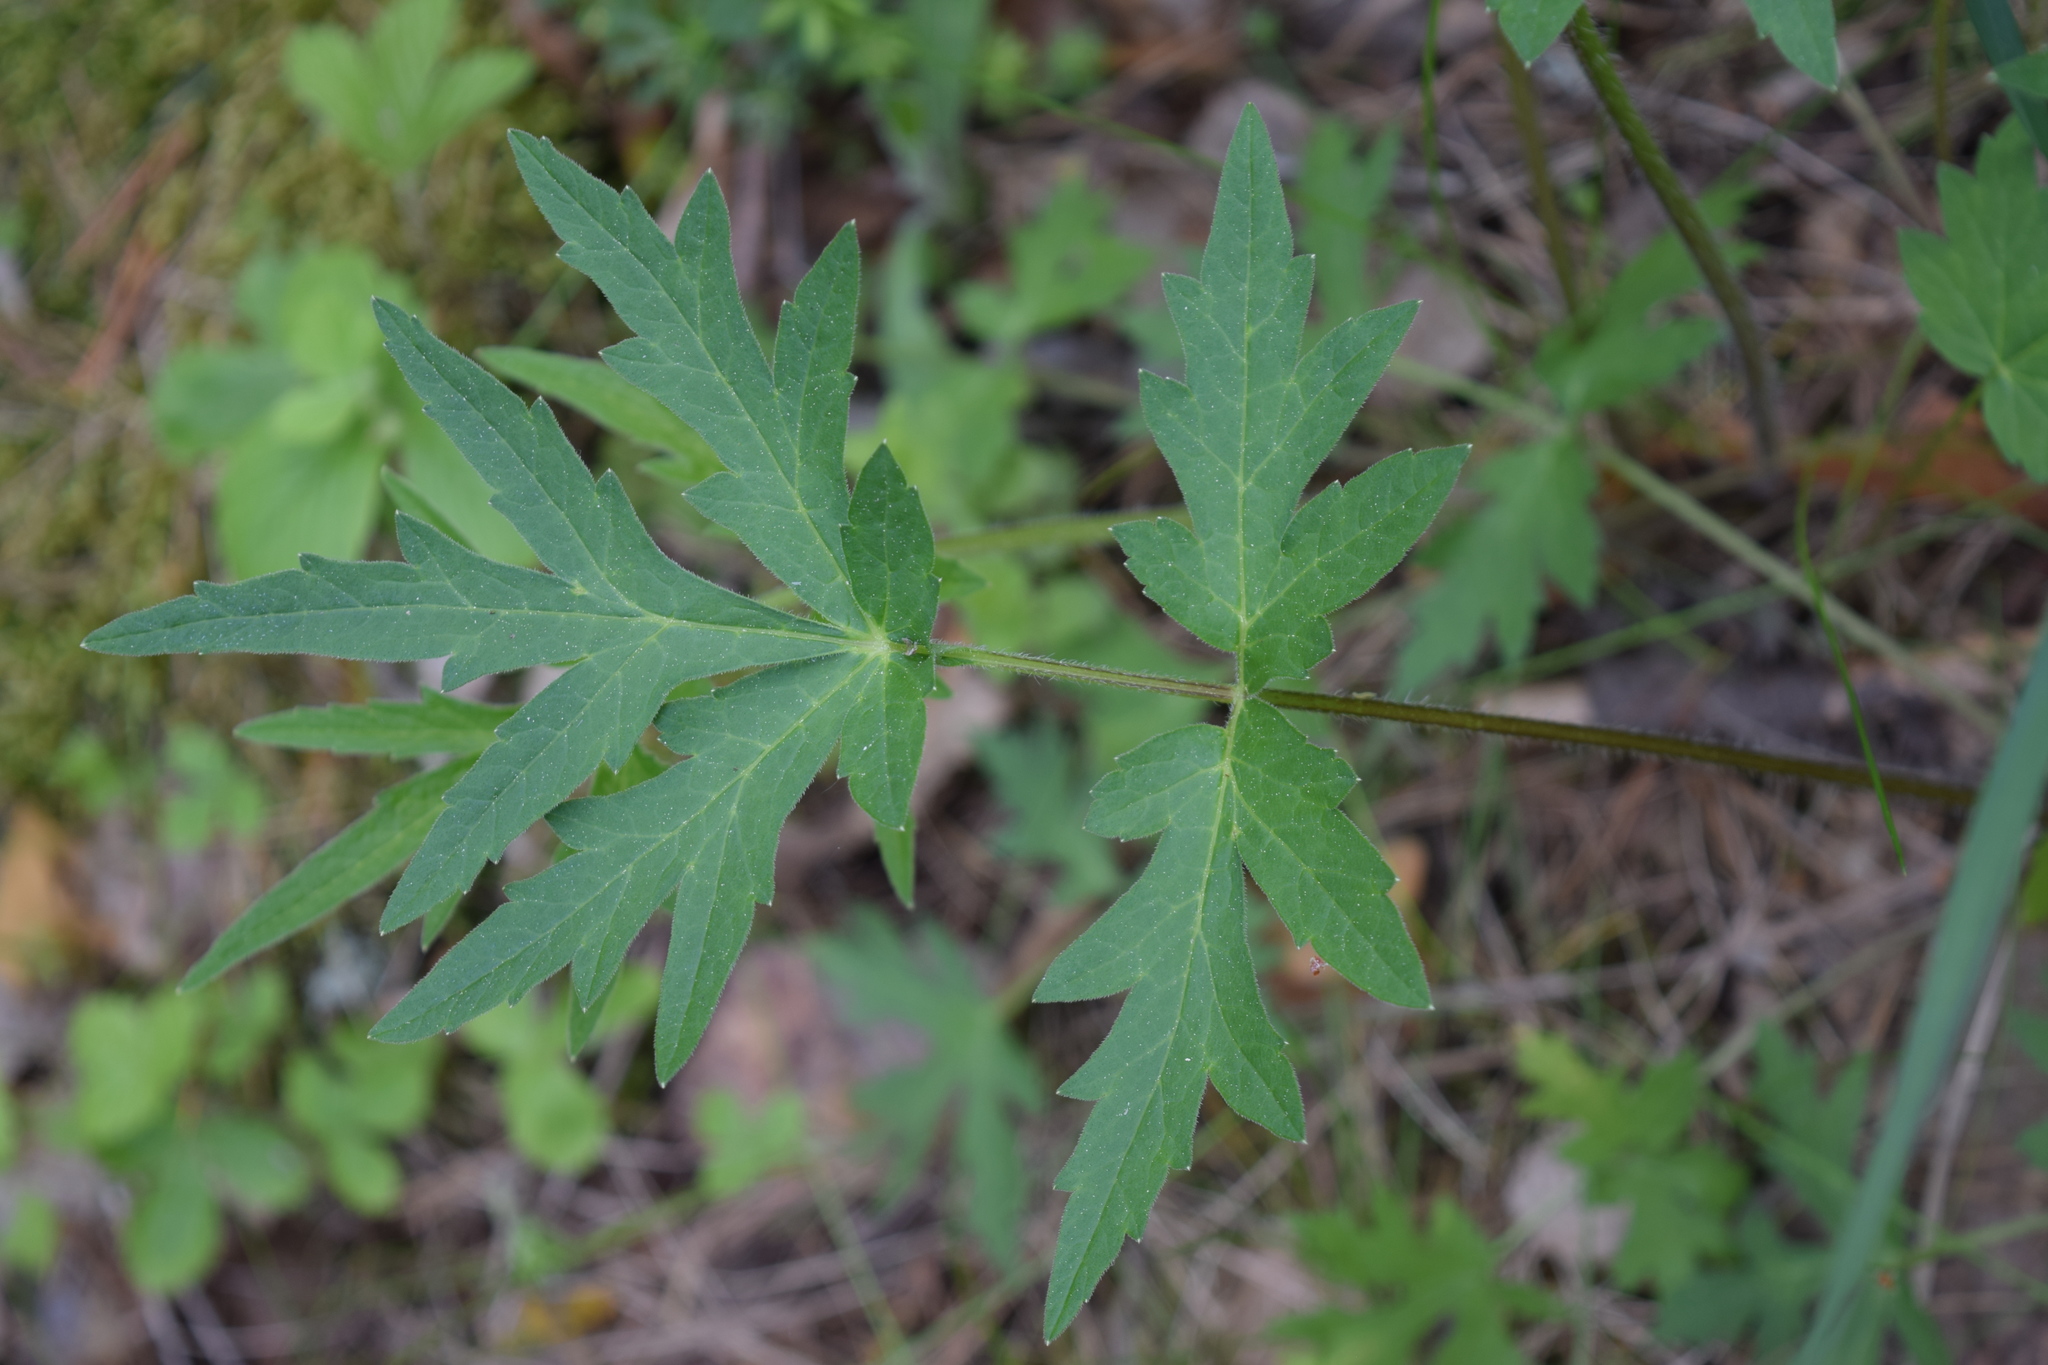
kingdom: Plantae
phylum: Tracheophyta
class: Magnoliopsida
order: Apiales
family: Apiaceae
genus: Heracleum
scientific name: Heracleum sphondylium
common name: Hogweed
